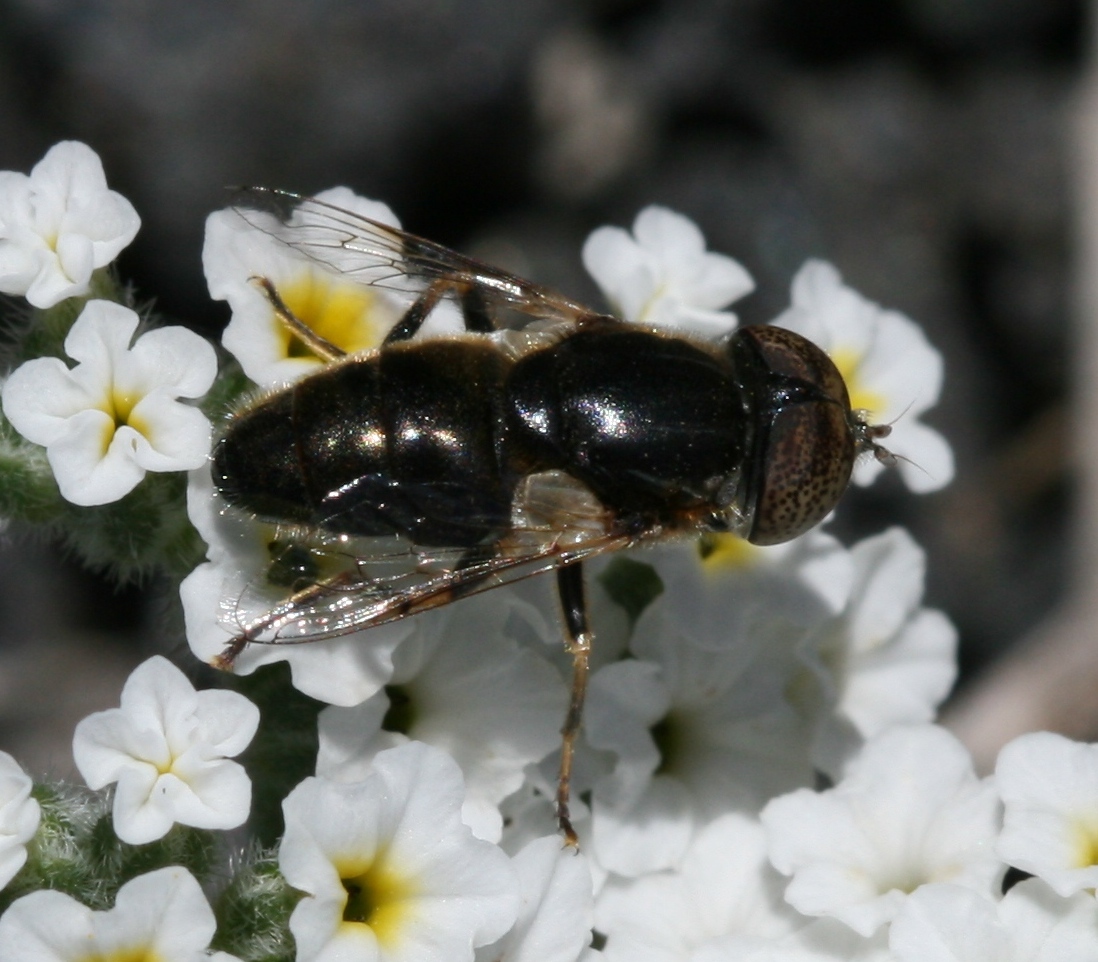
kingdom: Animalia
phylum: Arthropoda
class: Insecta
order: Diptera
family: Syrphidae
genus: Eristalinus
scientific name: Eristalinus aeneus
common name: Syrphid fly
